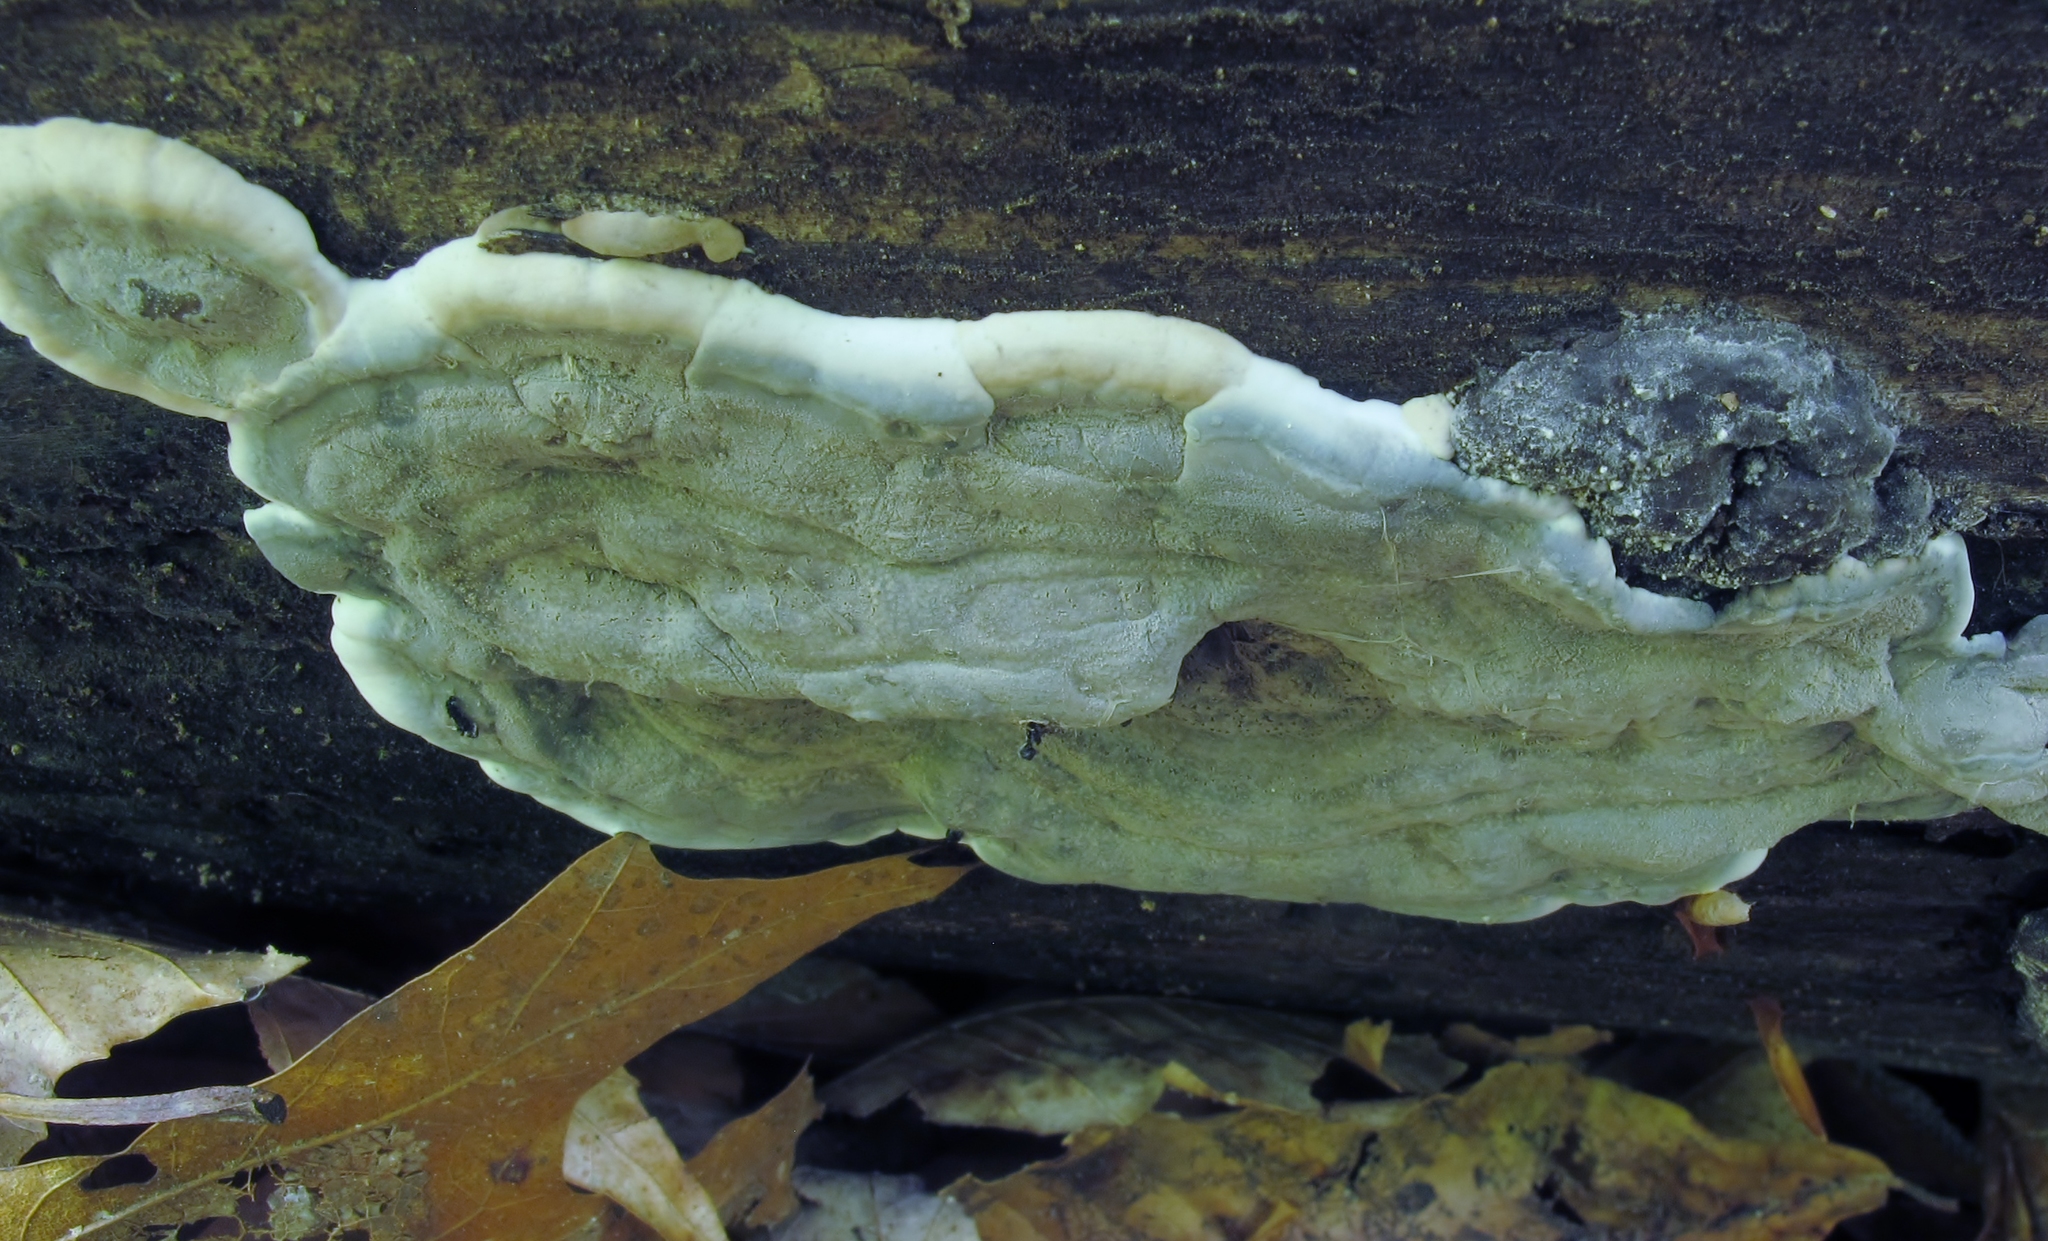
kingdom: Fungi
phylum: Ascomycota
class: Sordariomycetes
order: Xylariales
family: Xylariaceae
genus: Kretzschmaria
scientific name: Kretzschmaria deusta
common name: Brittle cinder
